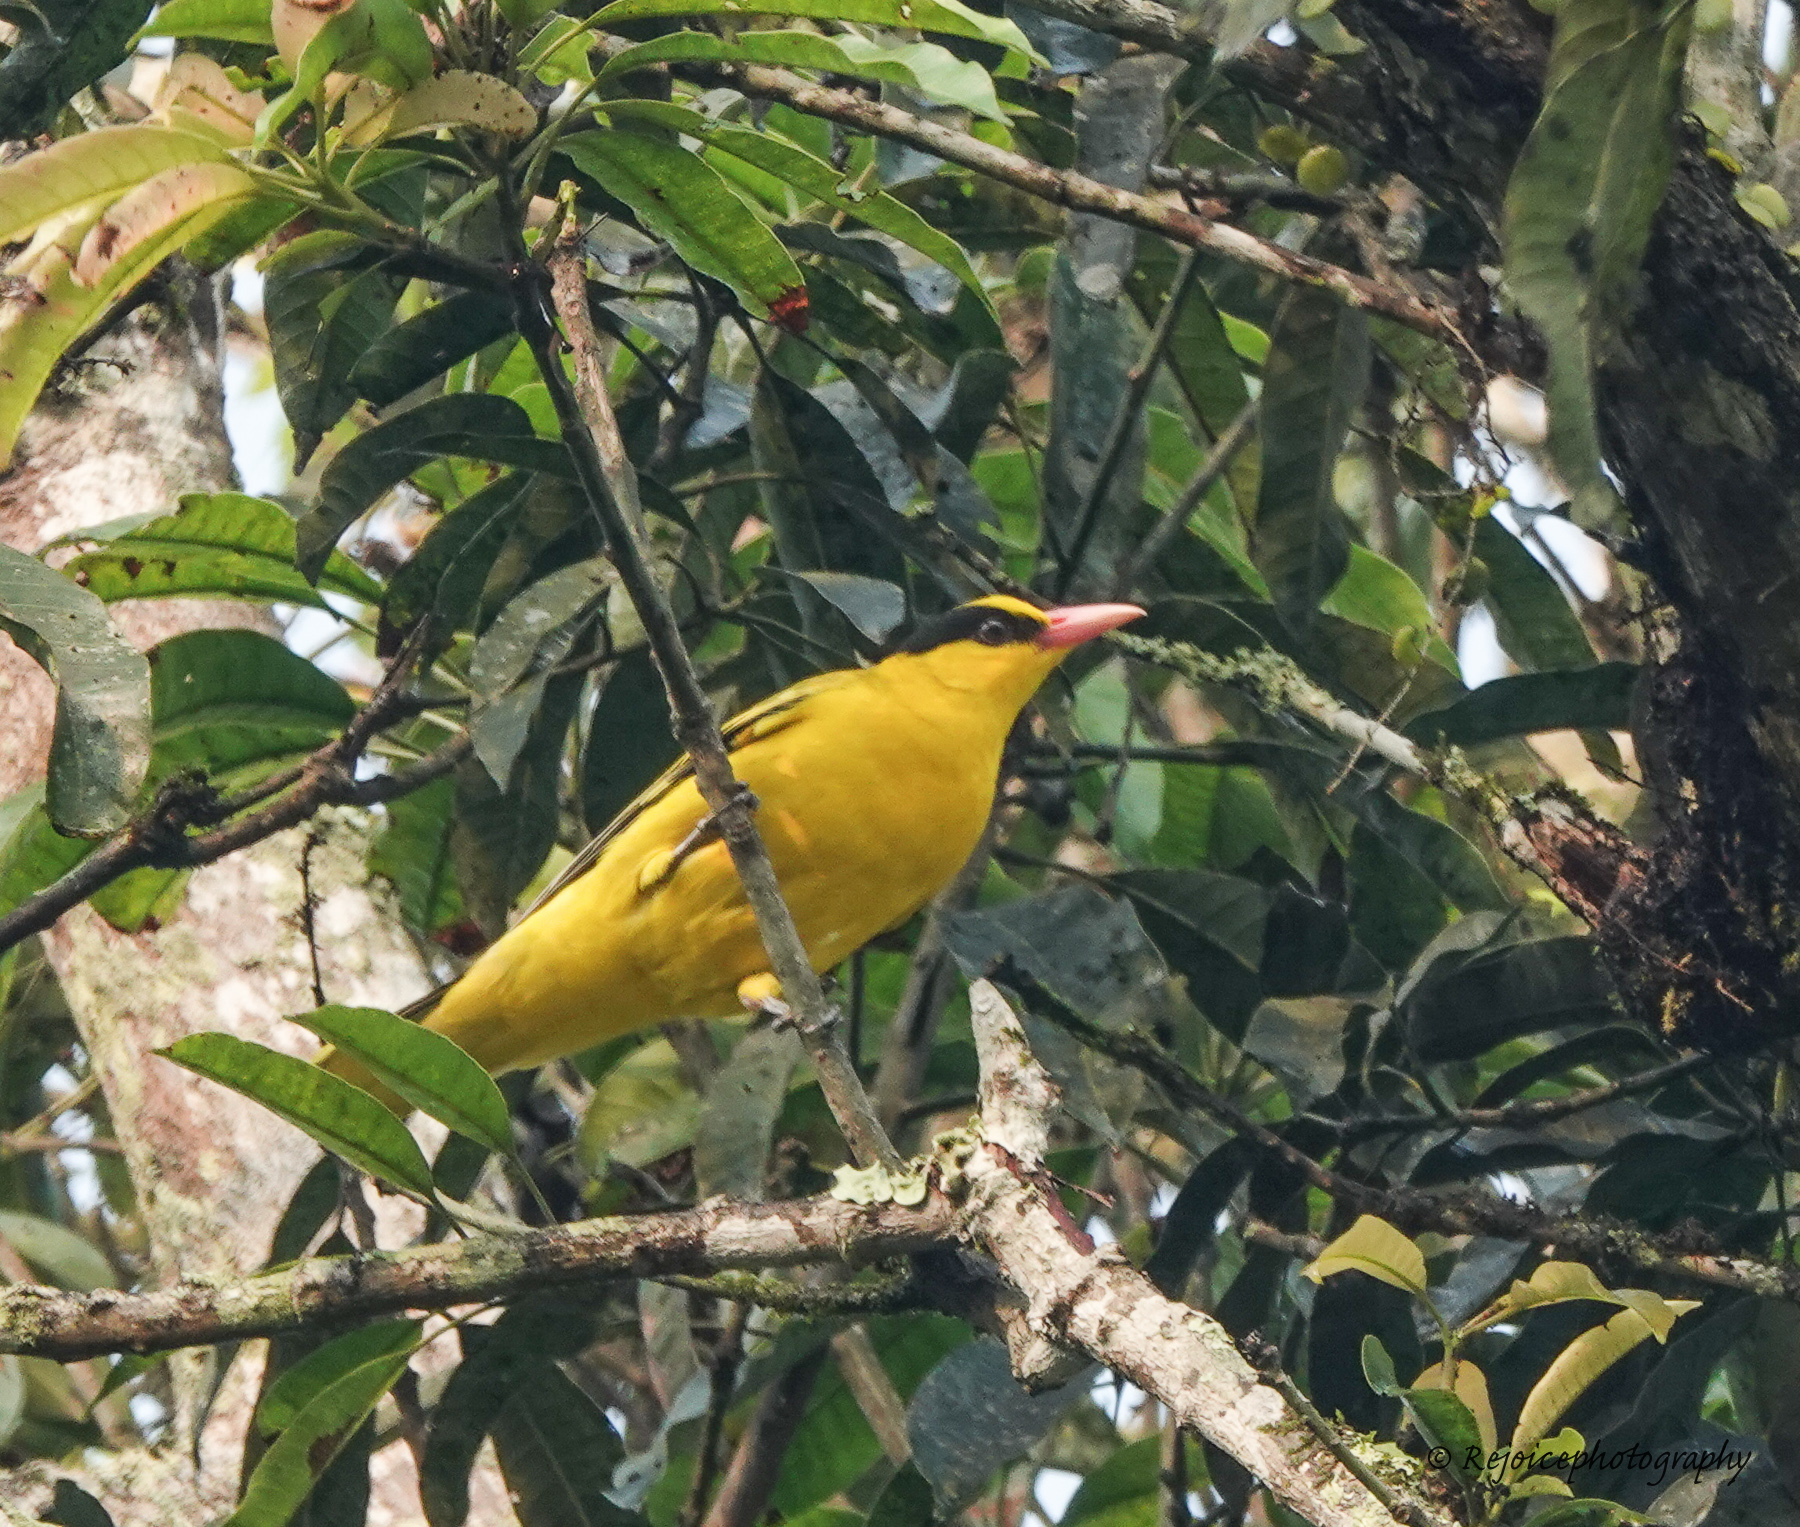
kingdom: Animalia
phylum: Chordata
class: Aves
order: Passeriformes
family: Oriolidae
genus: Oriolus
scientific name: Oriolus chinensis
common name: Black-naped oriole
